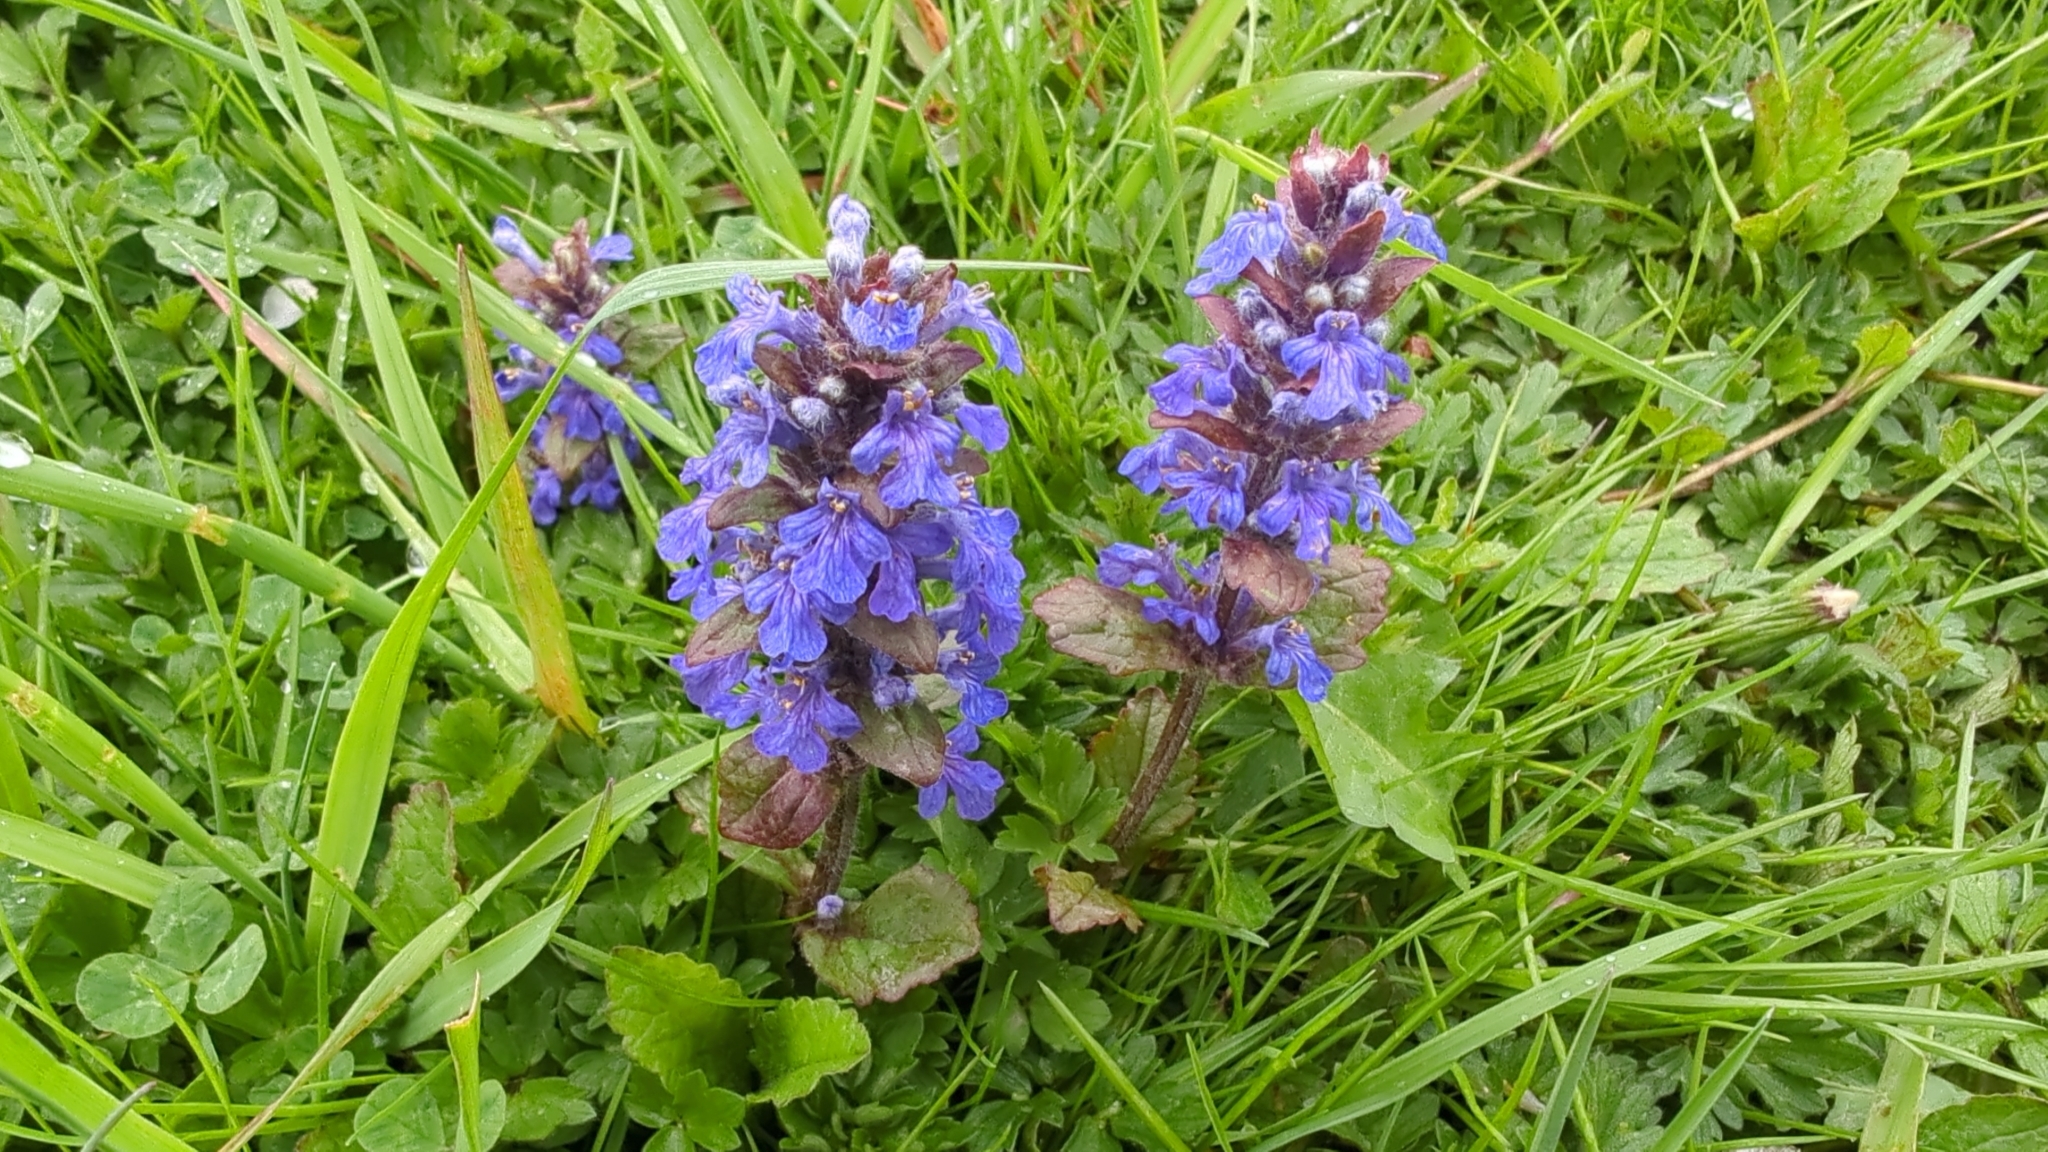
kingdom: Plantae
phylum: Tracheophyta
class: Magnoliopsida
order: Lamiales
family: Lamiaceae
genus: Ajuga
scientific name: Ajuga reptans
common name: Bugle
